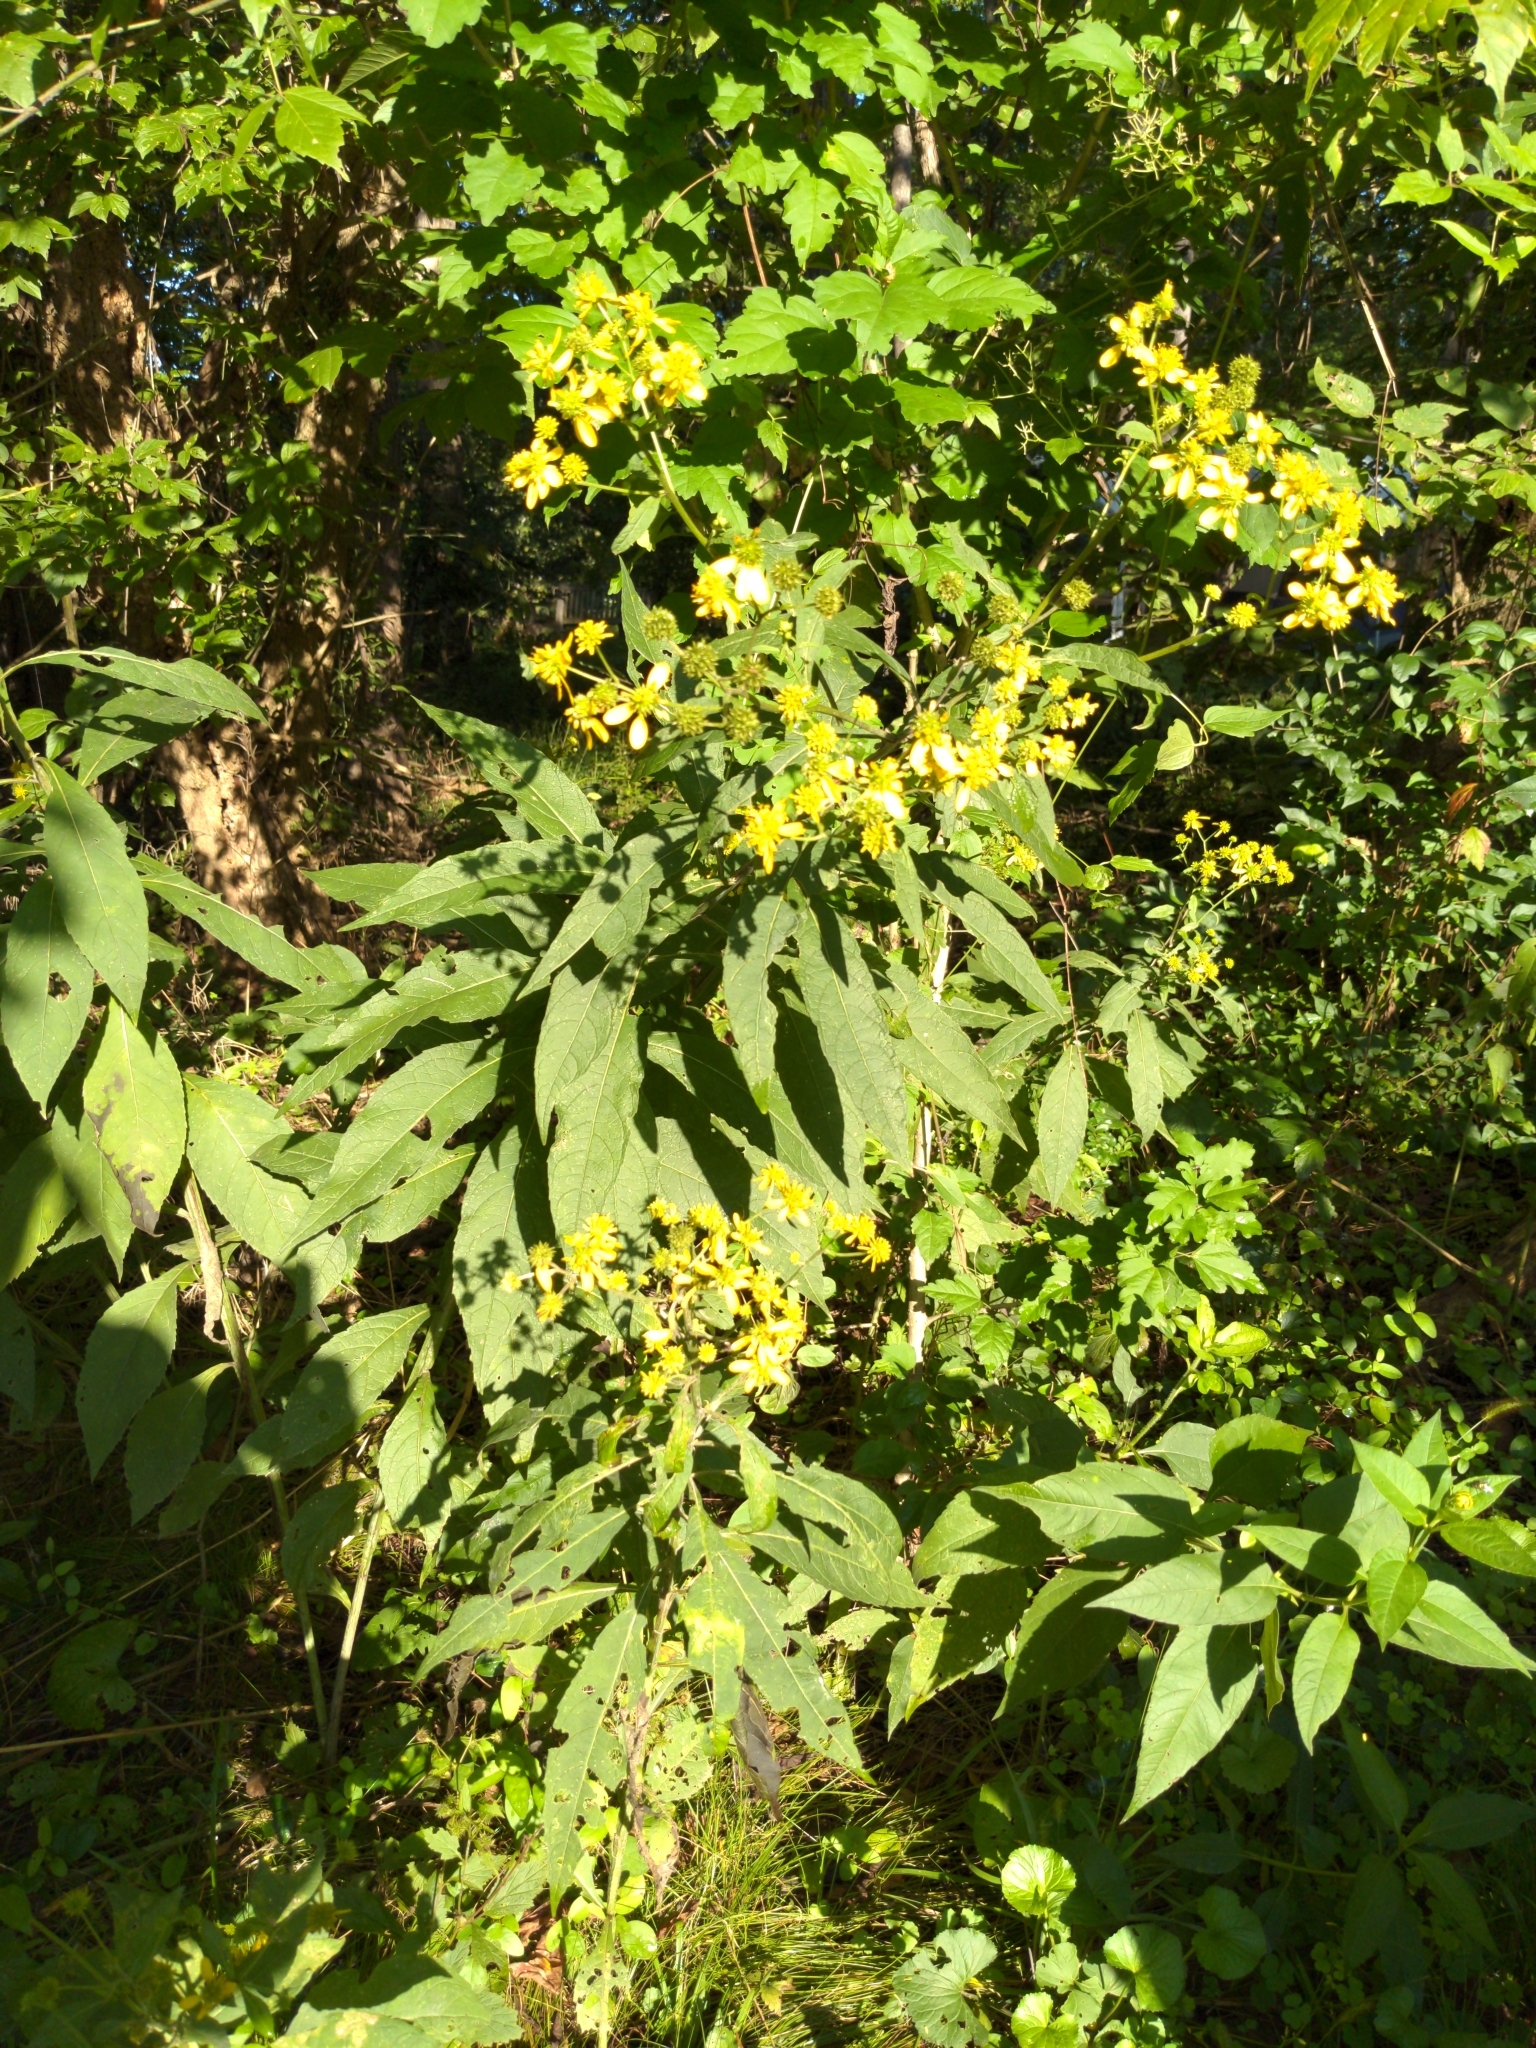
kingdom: Plantae
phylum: Tracheophyta
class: Magnoliopsida
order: Asterales
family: Asteraceae
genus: Verbesina
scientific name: Verbesina alternifolia
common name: Wingstem
